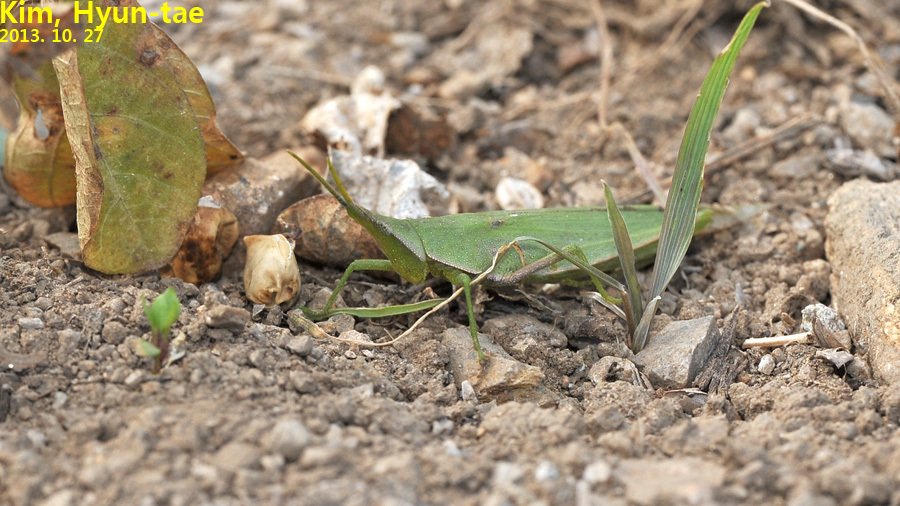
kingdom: Animalia
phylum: Arthropoda
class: Insecta
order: Orthoptera
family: Pyrgomorphidae
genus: Atractomorpha
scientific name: Atractomorpha lata
